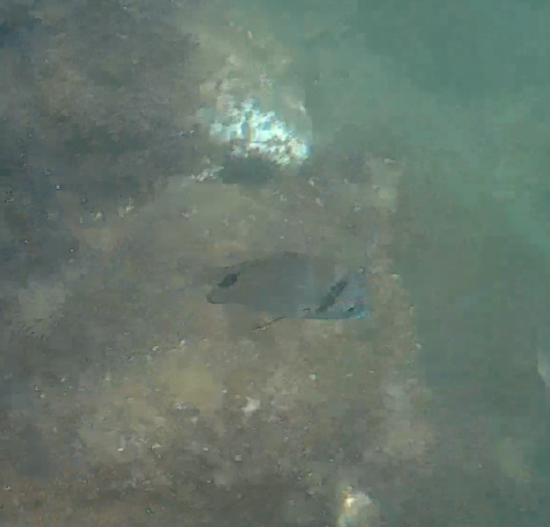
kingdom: Animalia
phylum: Chordata
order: Perciformes
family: Sparidae
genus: Diplodus
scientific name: Diplodus vulgaris
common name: Common two-banded seabream
